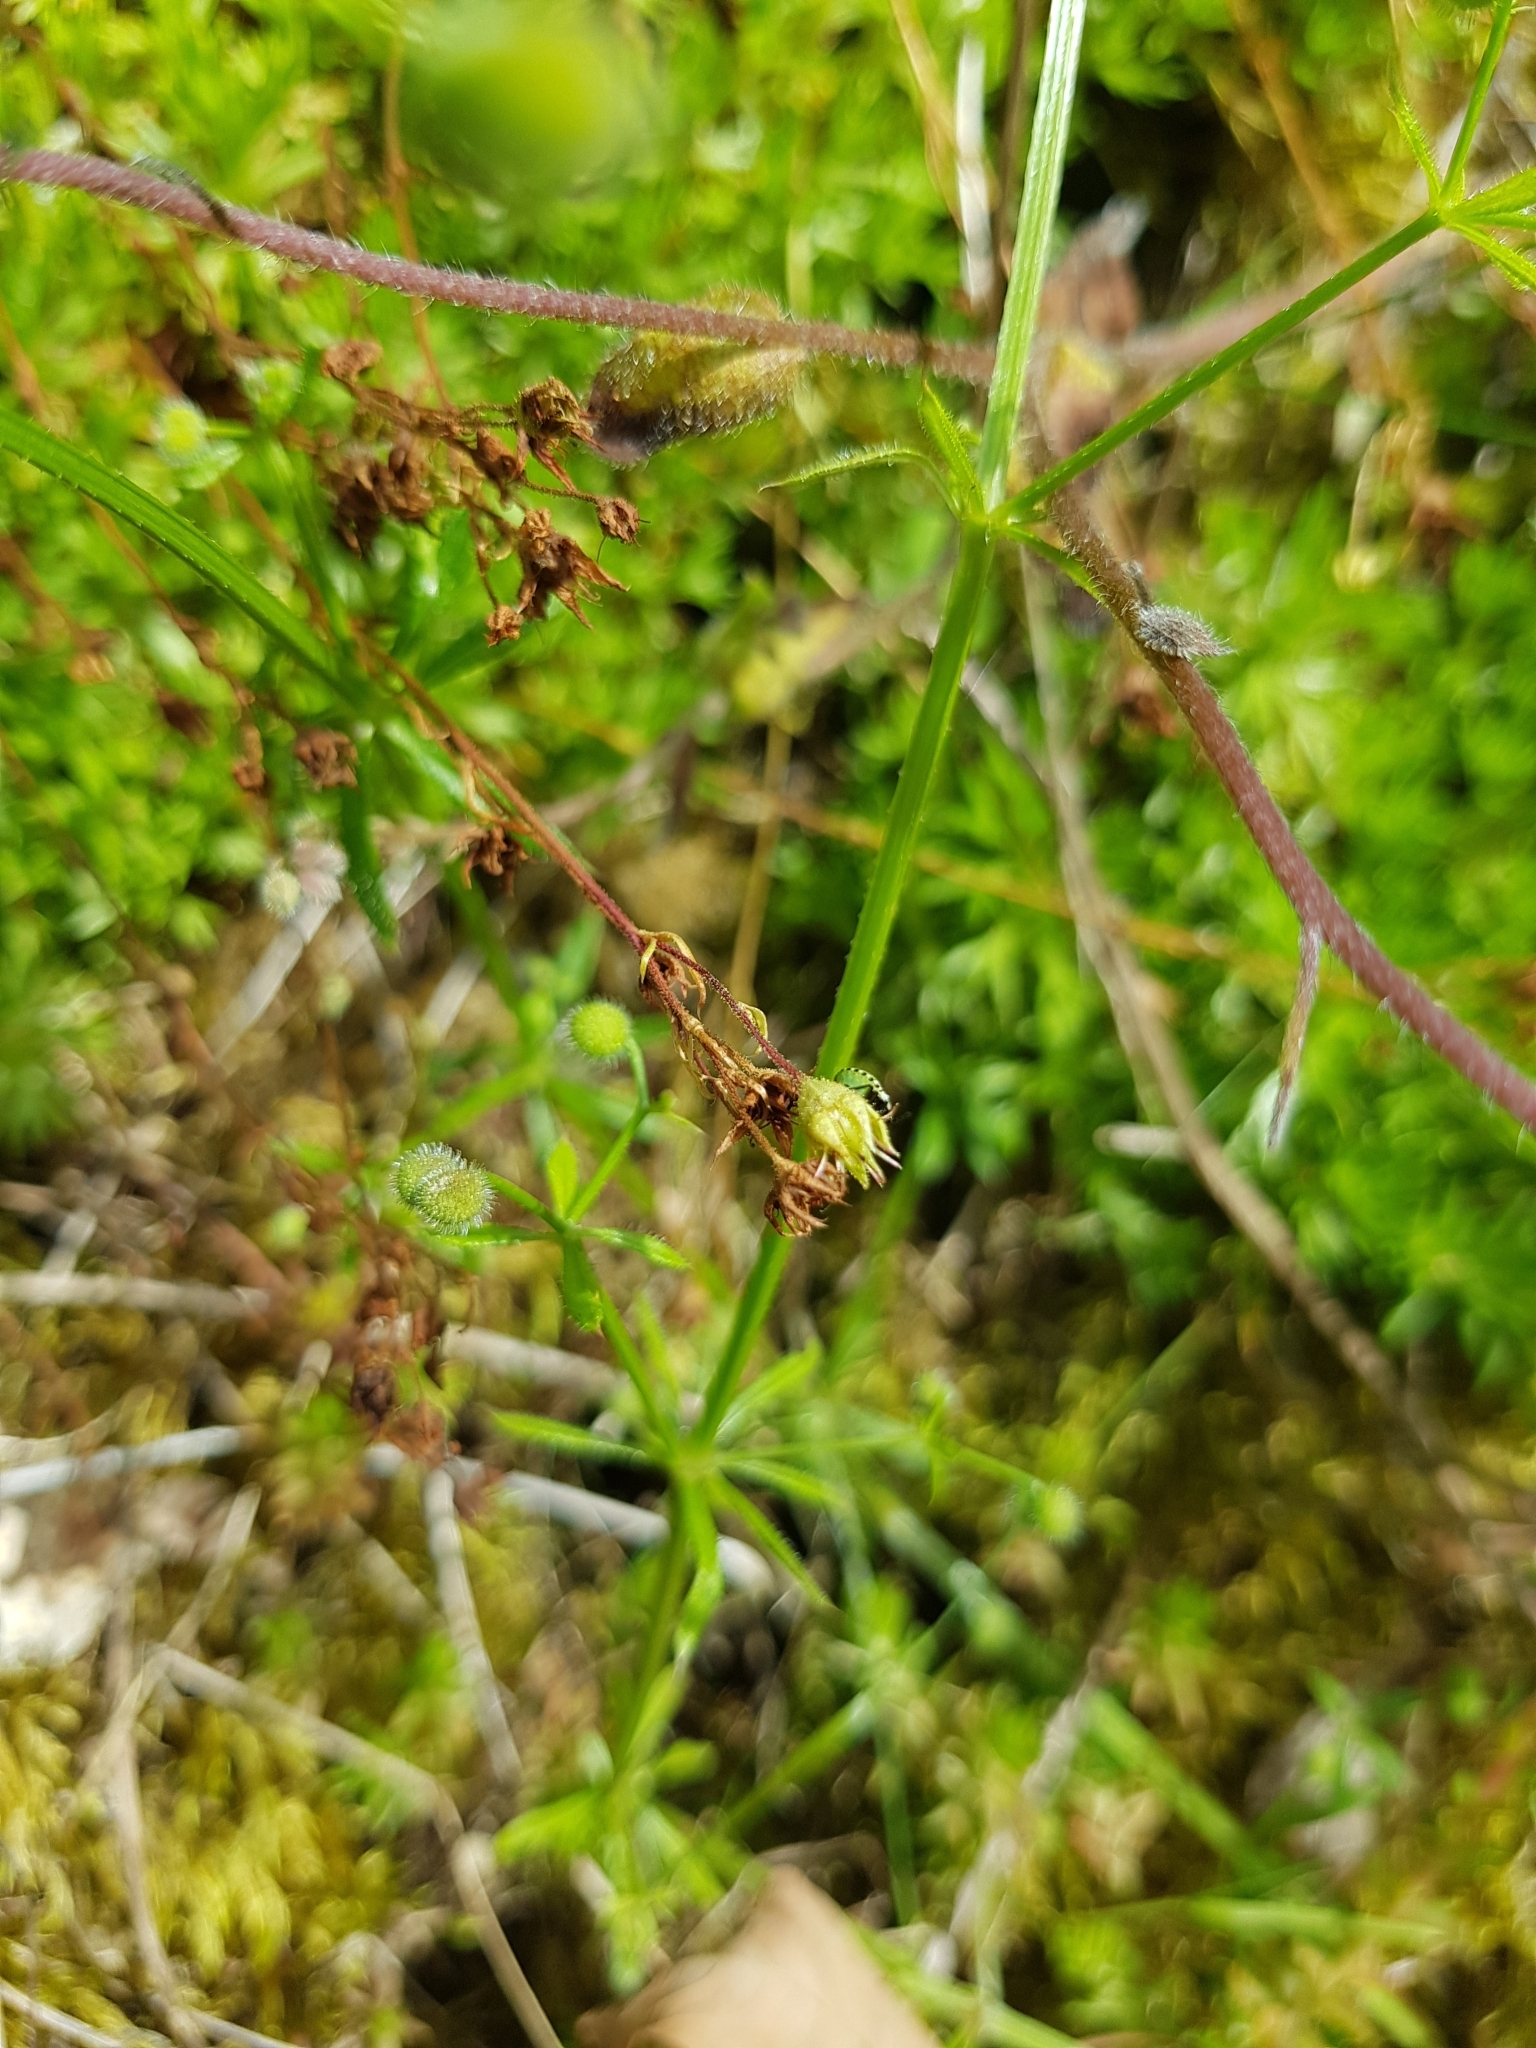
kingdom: Animalia
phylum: Arthropoda
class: Insecta
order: Hemiptera
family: Pentatomidae
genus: Palomena
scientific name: Palomena prasina
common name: Green shieldbug
